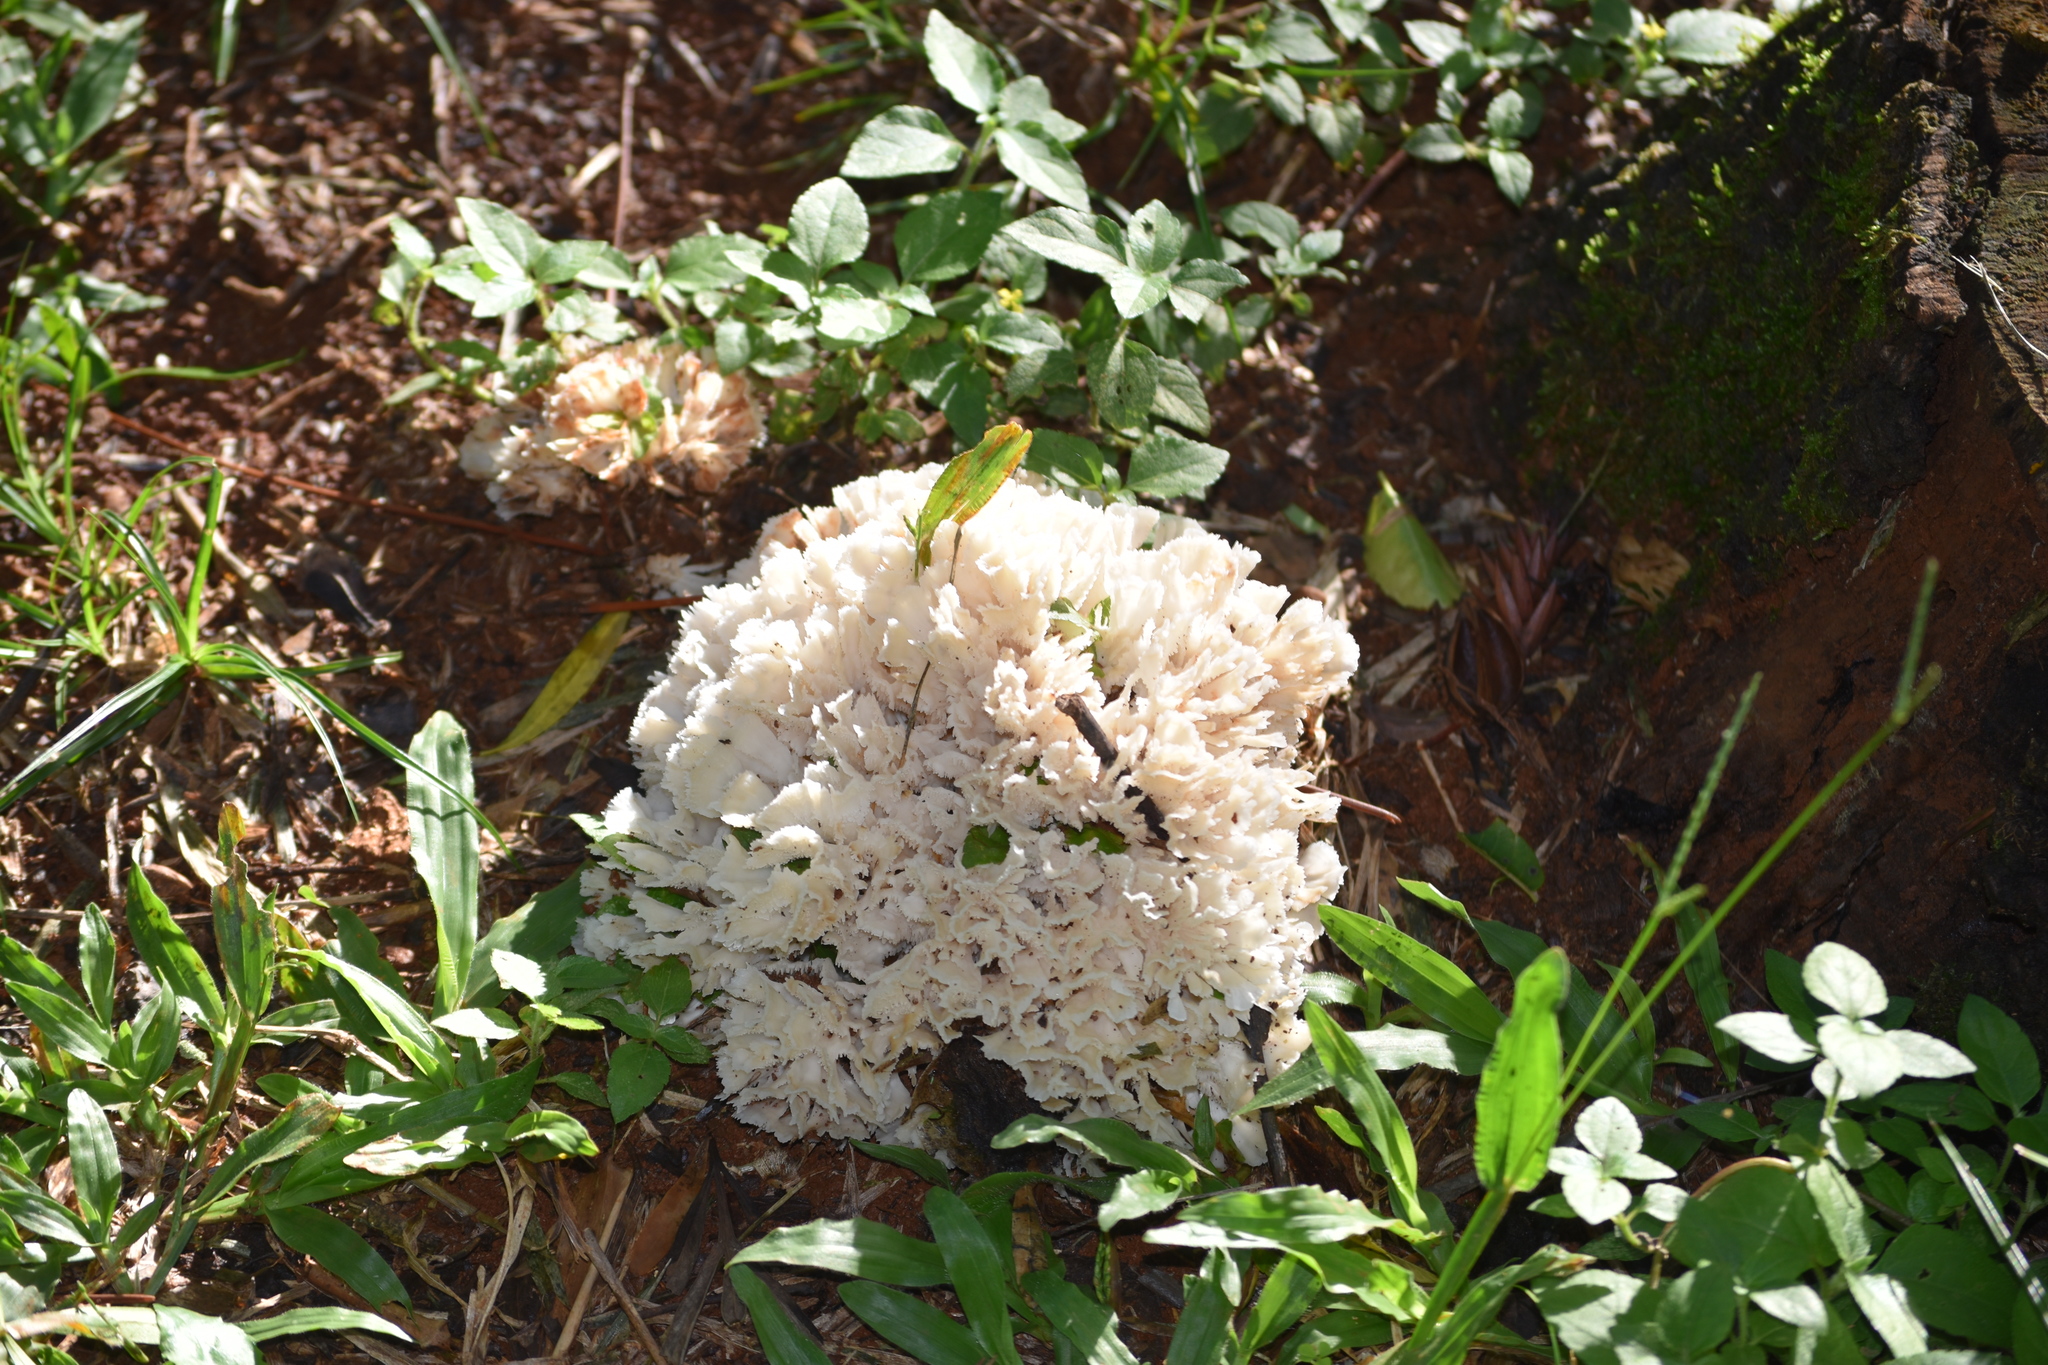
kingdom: Fungi
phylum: Basidiomycota
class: Agaricomycetes
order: Polyporales
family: Irpicaceae
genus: Irpex
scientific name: Irpex rosettiformis
